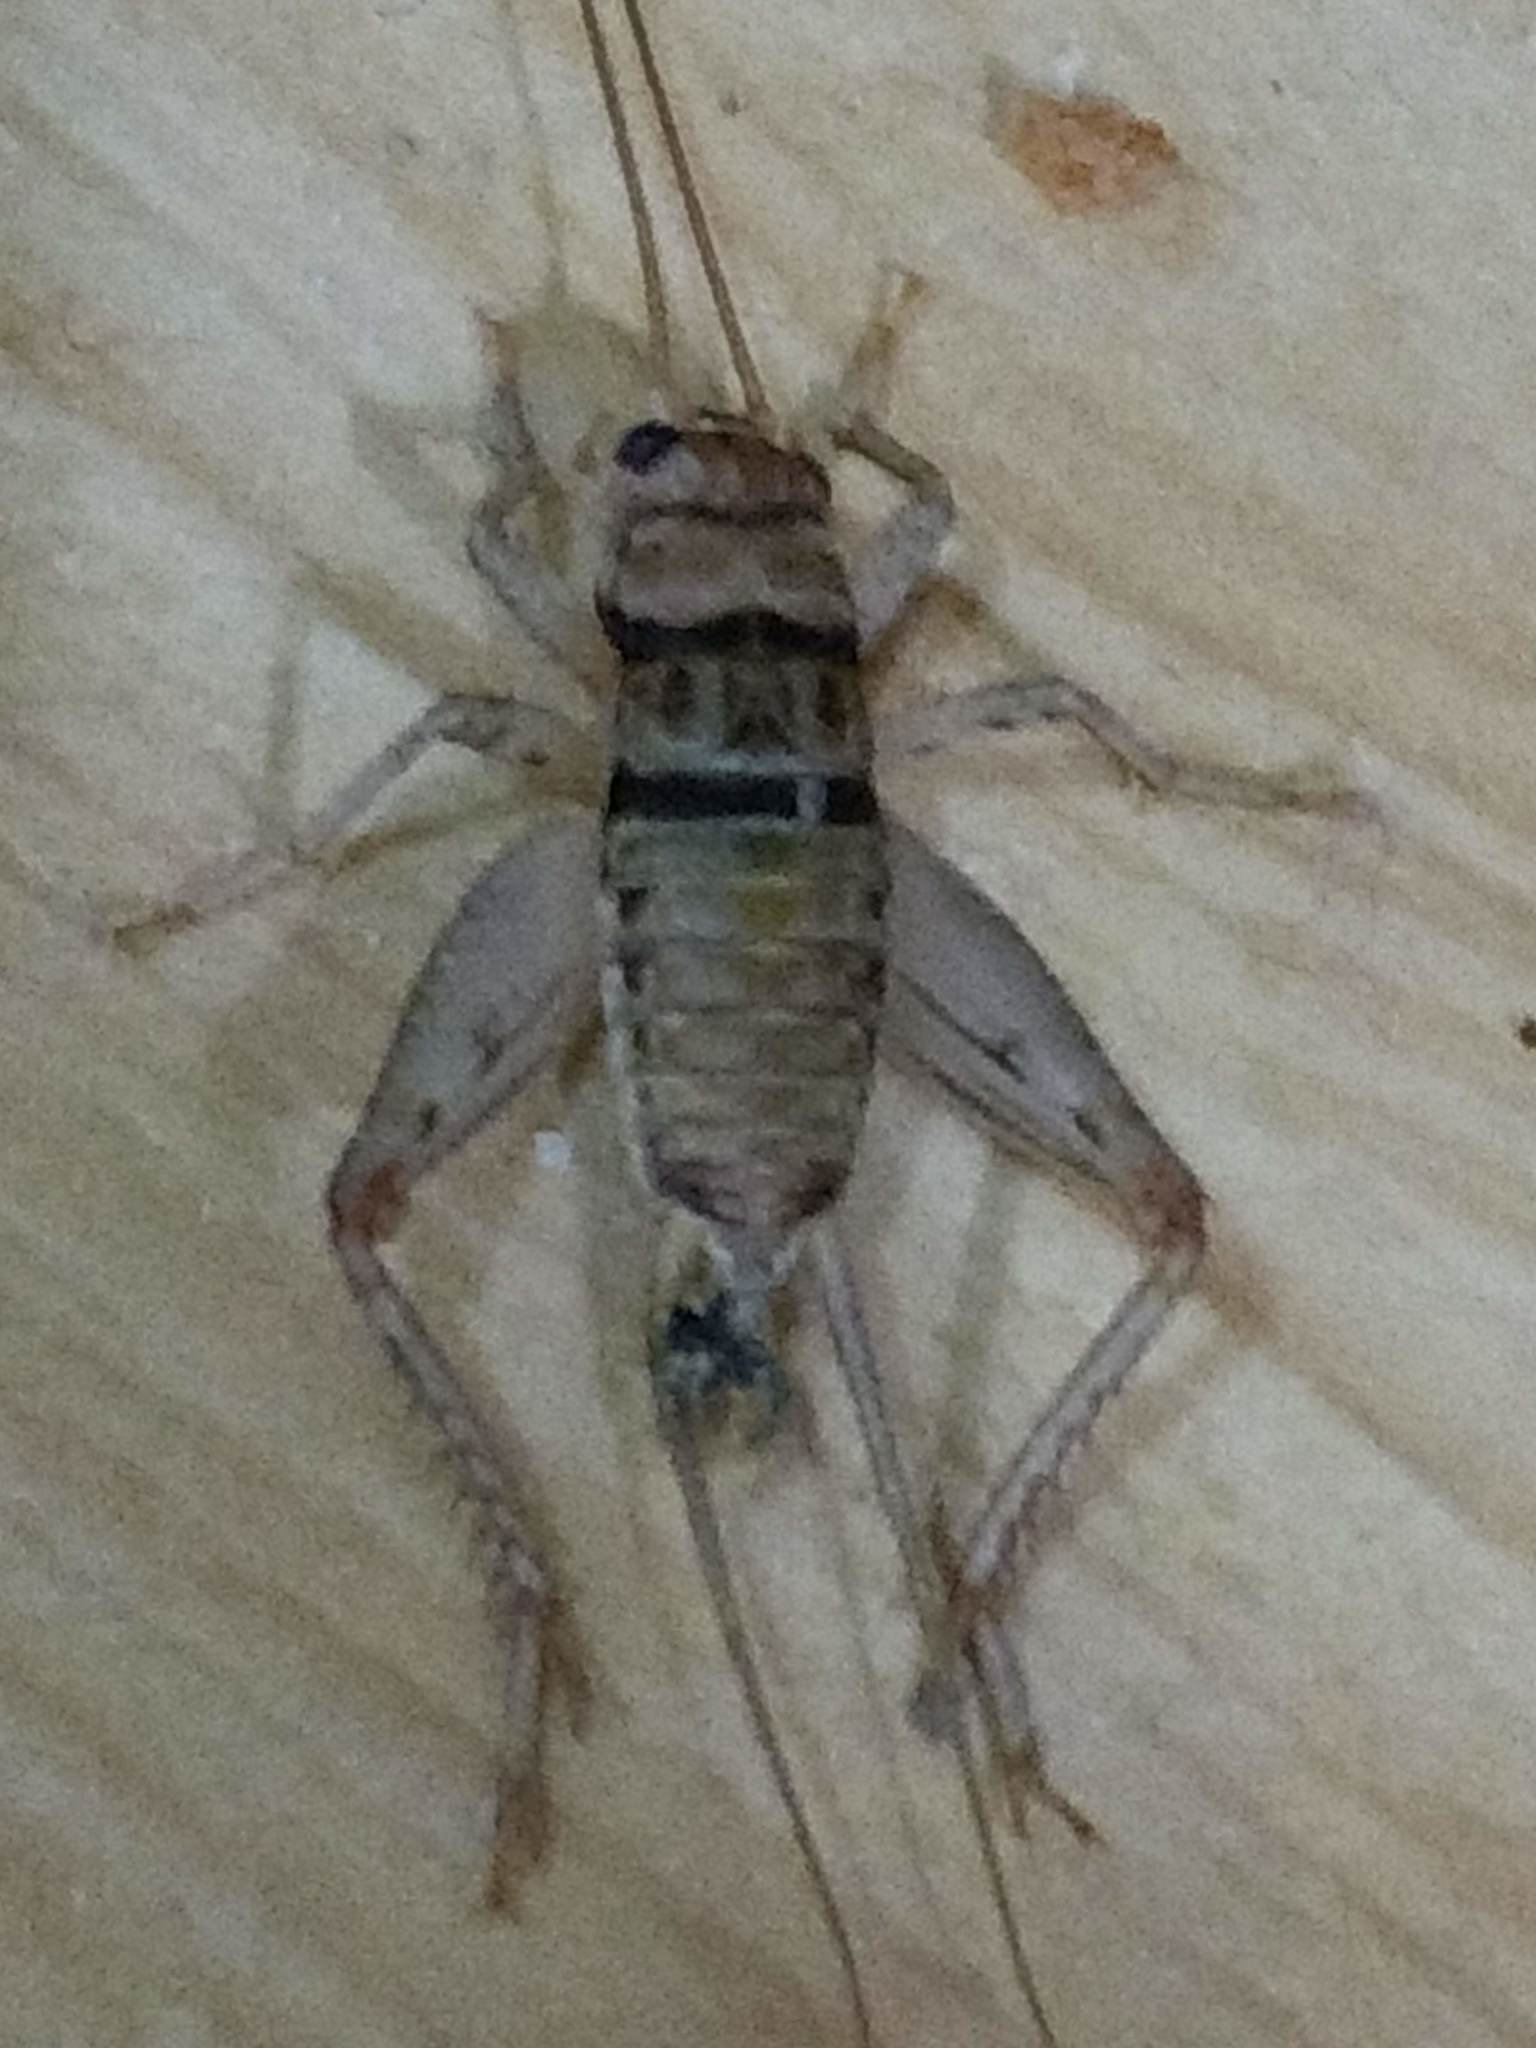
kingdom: Animalia
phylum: Arthropoda
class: Insecta
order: Orthoptera
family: Gryllidae
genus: Gryllodes
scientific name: Gryllodes sigillatus
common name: Tropical house cricket
